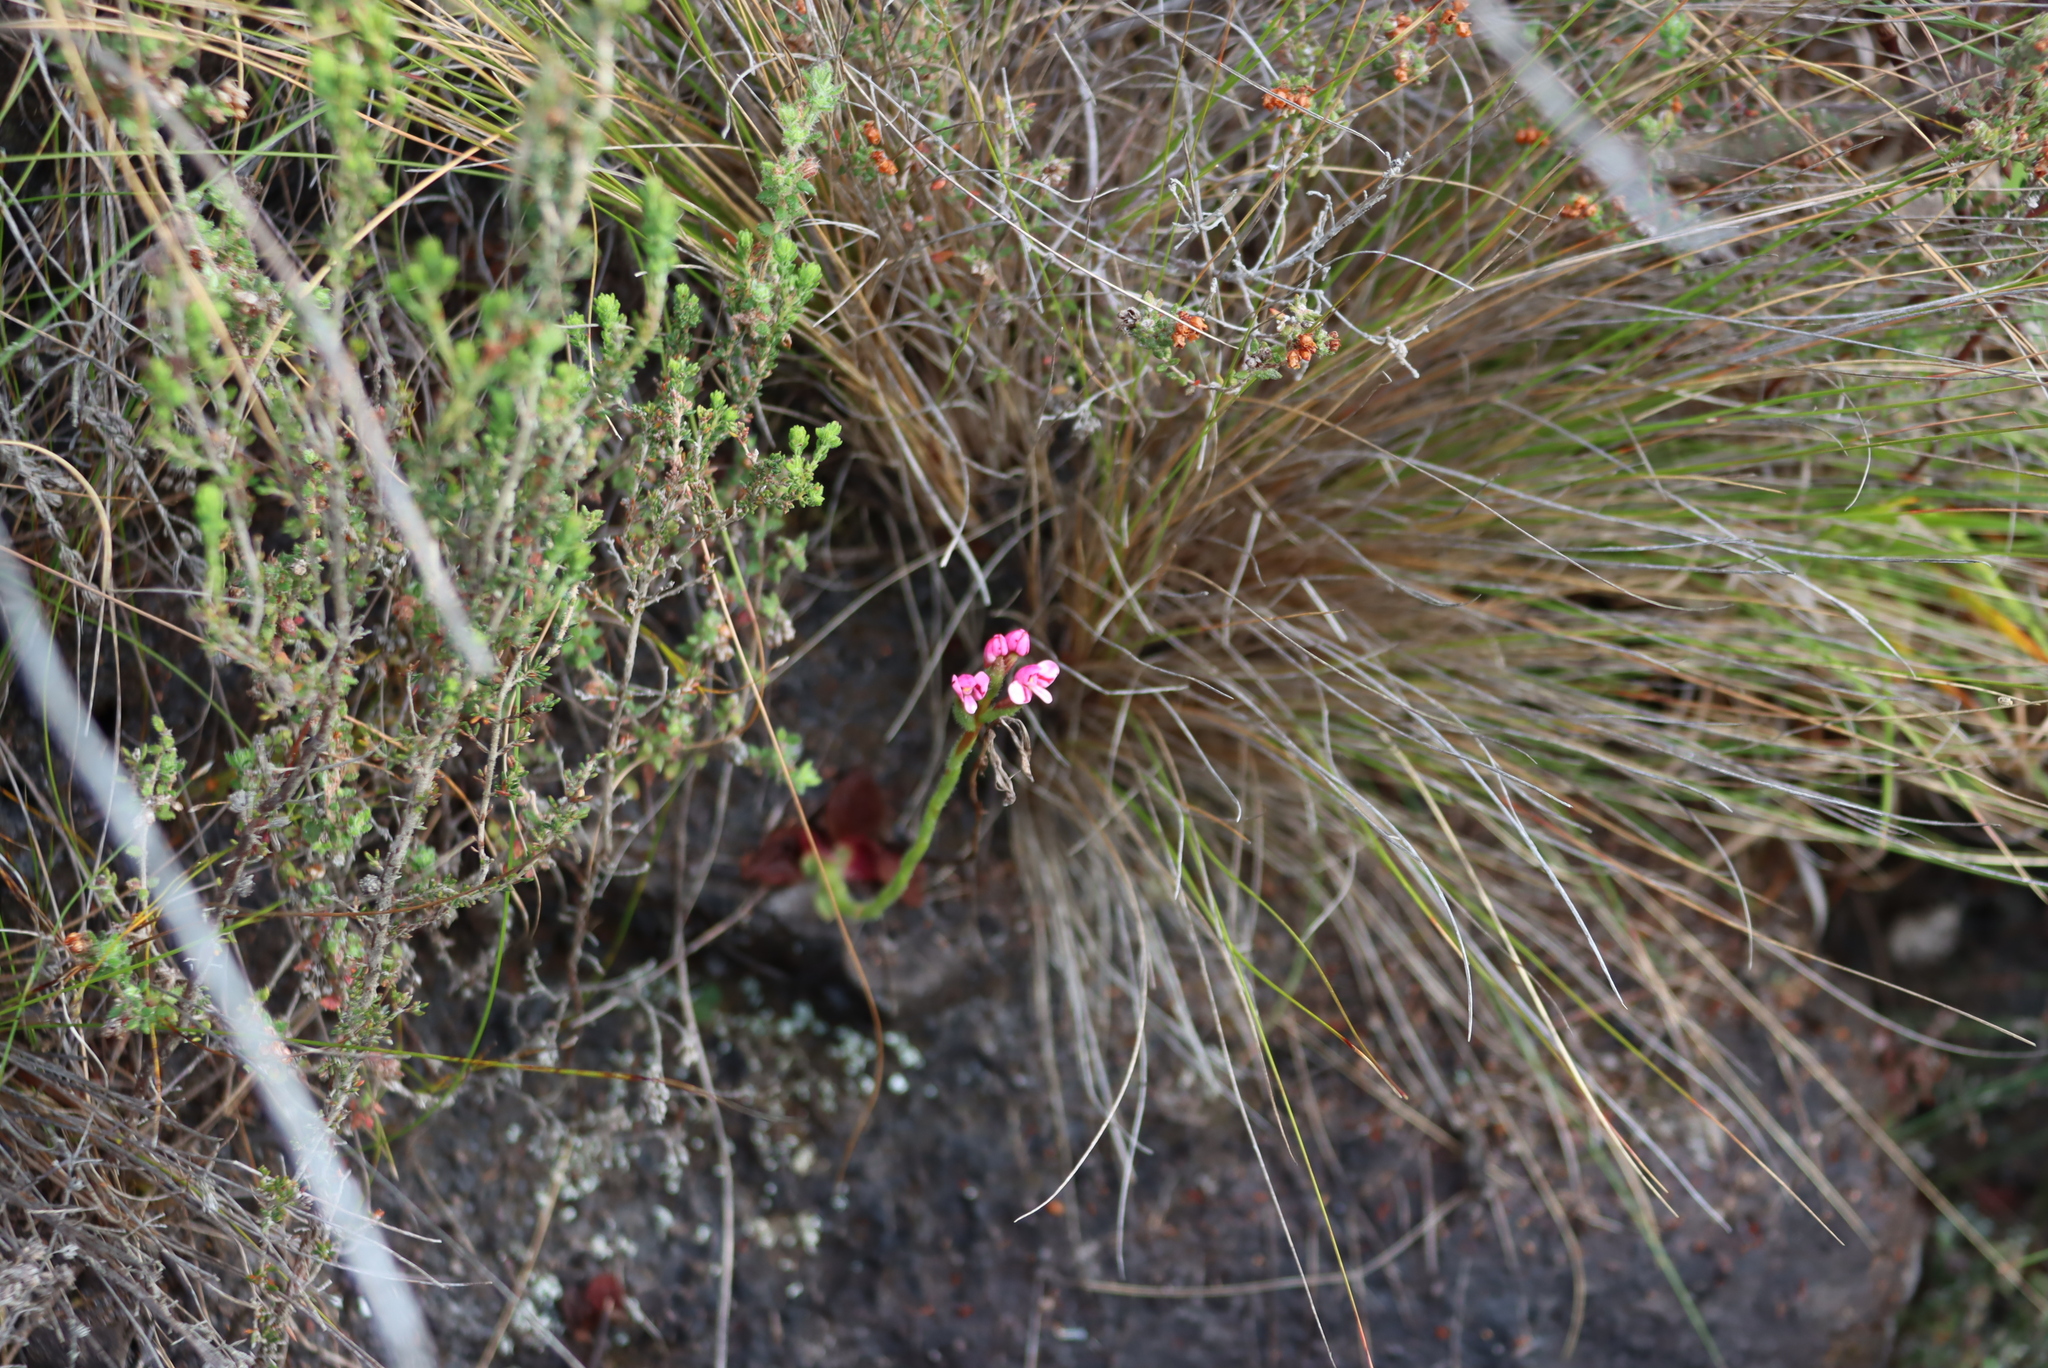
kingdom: Plantae
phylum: Tracheophyta
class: Liliopsida
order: Asparagales
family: Orchidaceae
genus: Disa
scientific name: Disa glandulosa
